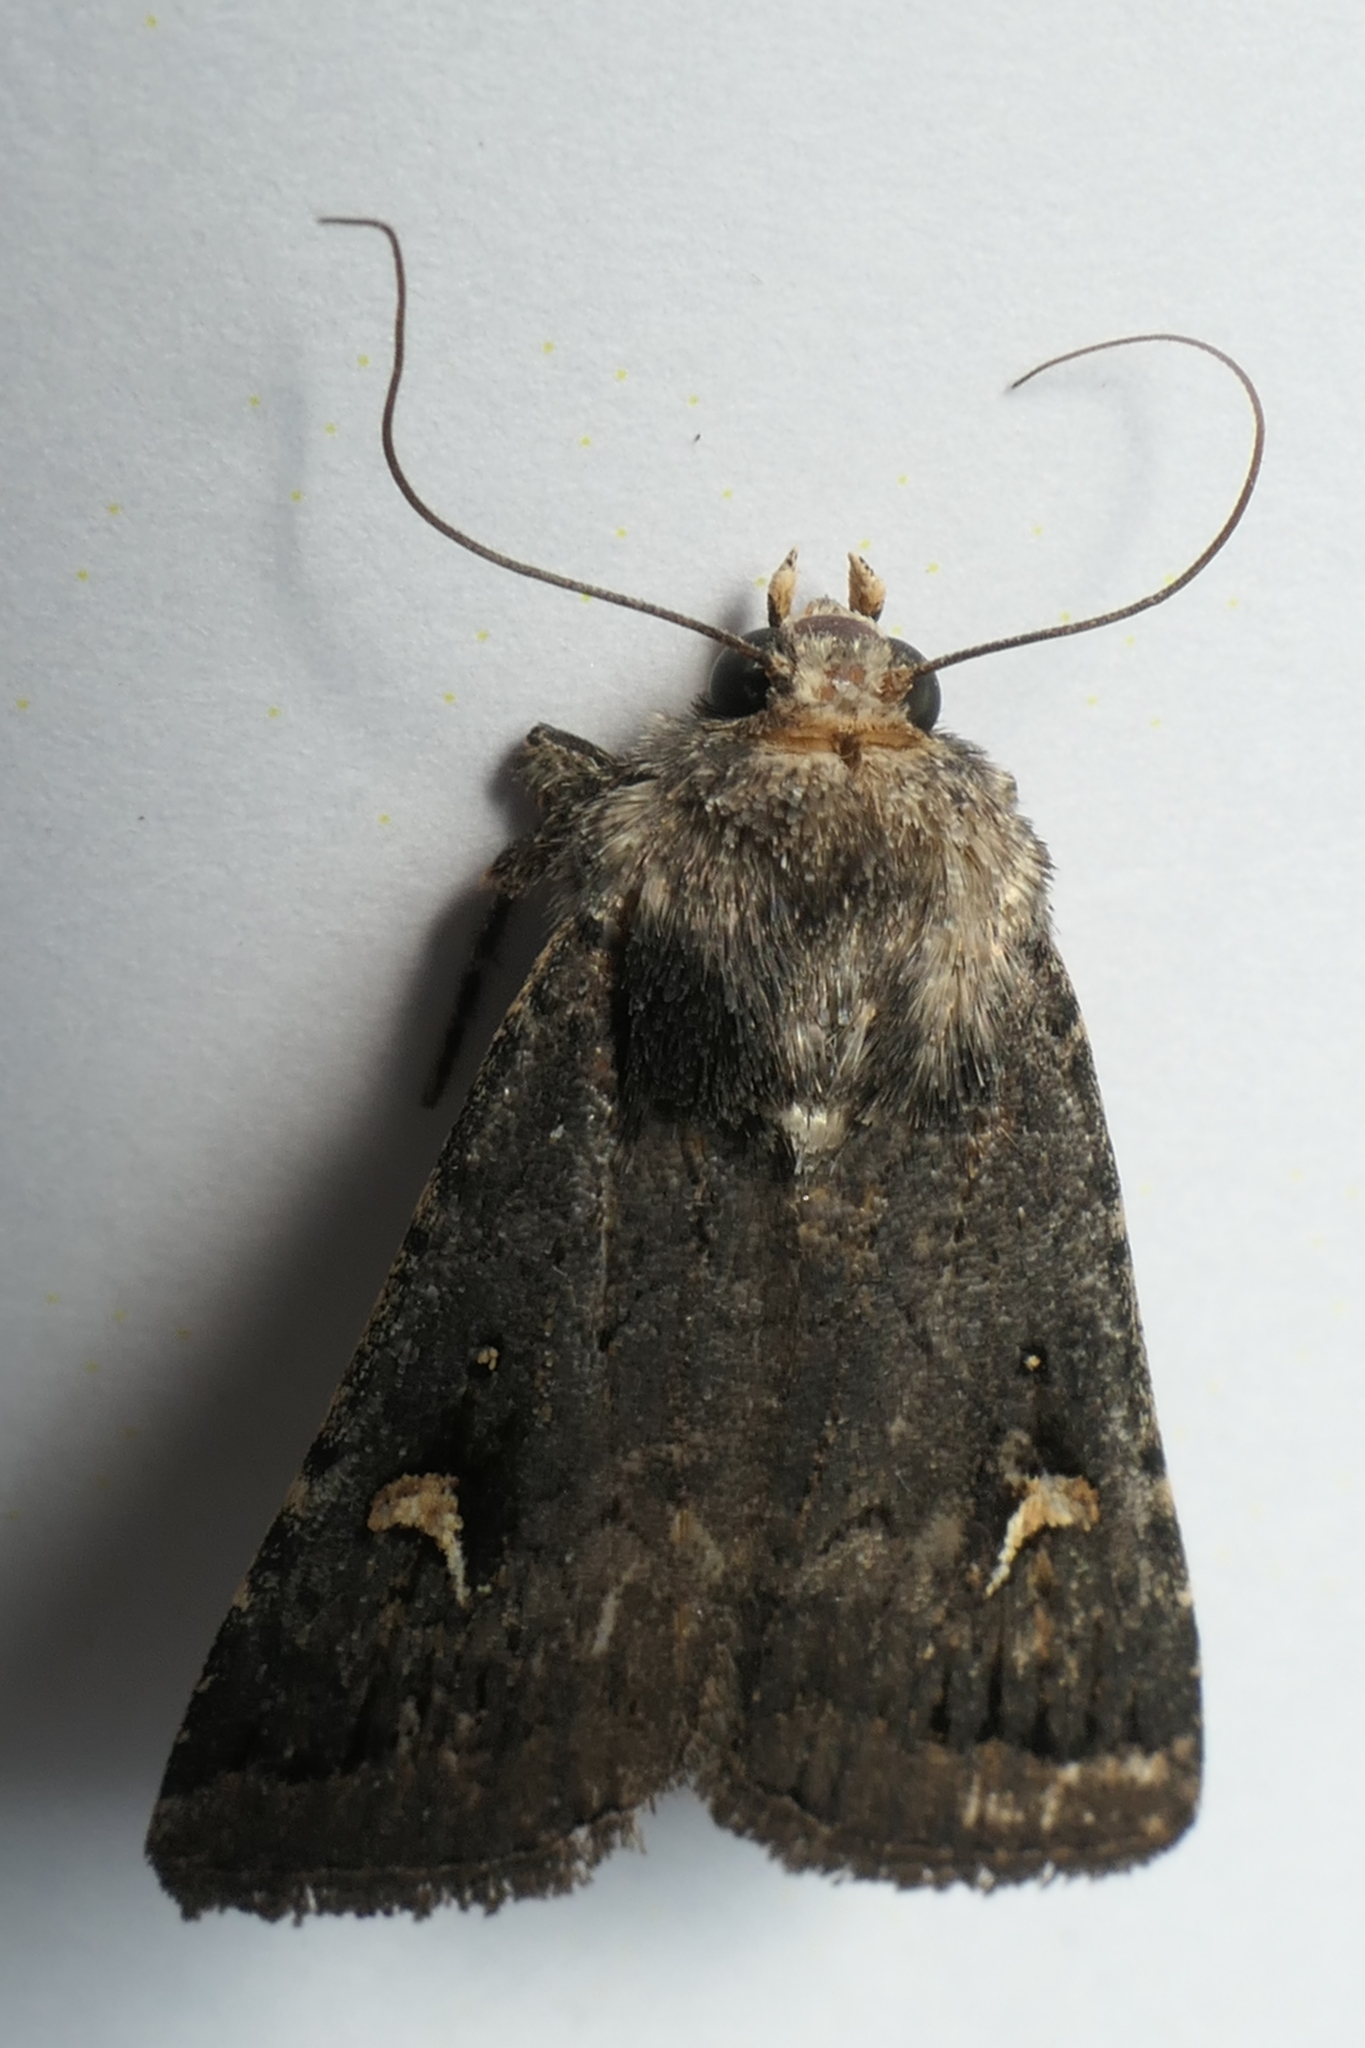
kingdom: Animalia
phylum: Arthropoda
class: Insecta
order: Lepidoptera
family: Noctuidae
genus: Proteuxoa
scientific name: Proteuxoa comma
